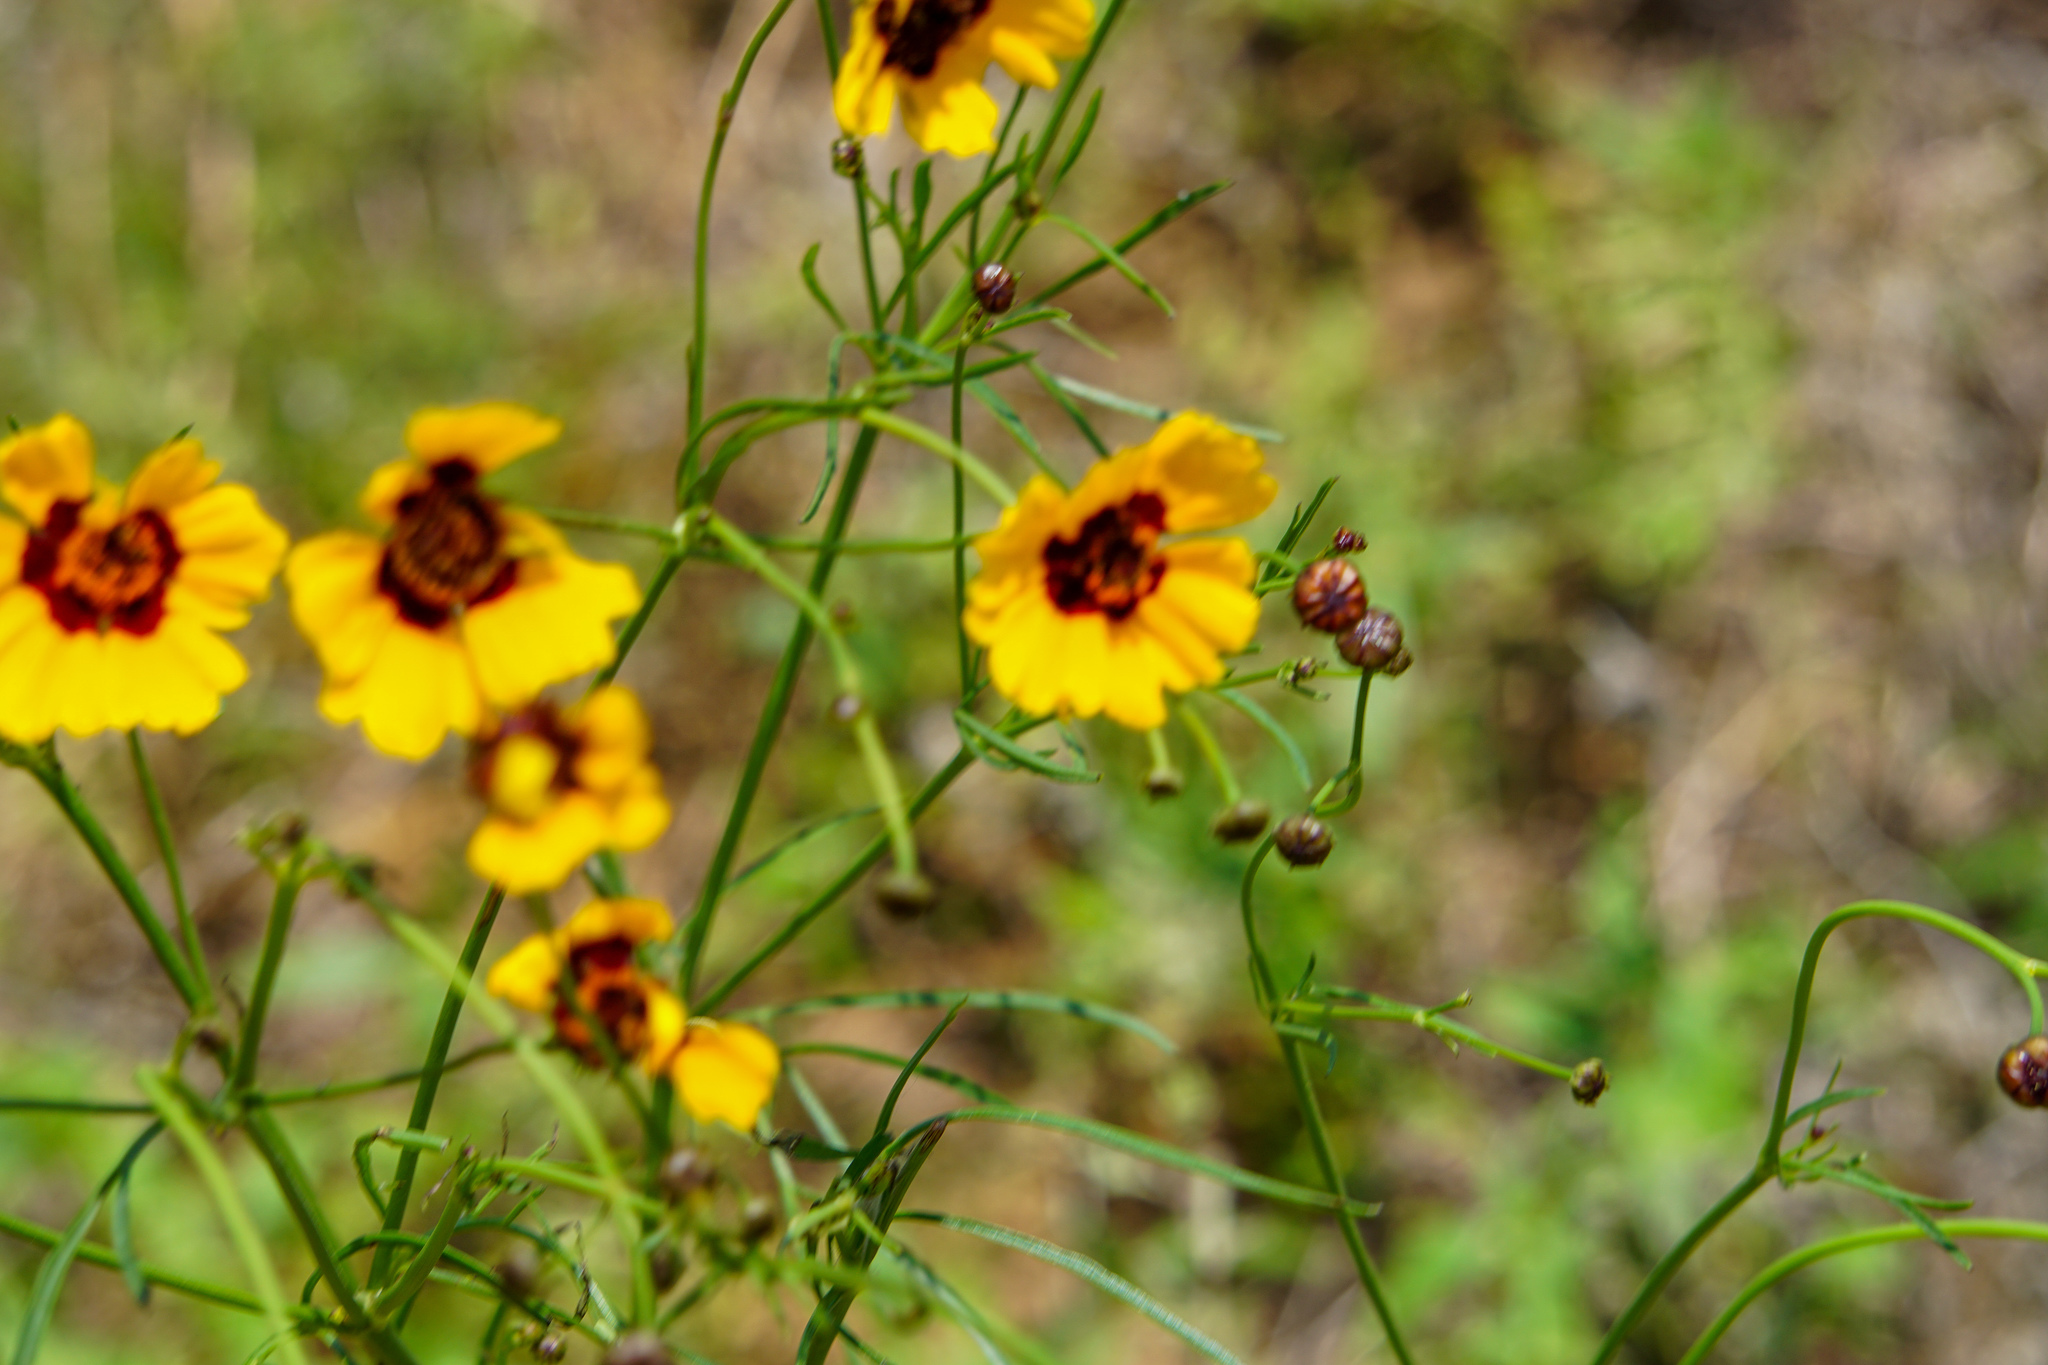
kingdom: Plantae
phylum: Tracheophyta
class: Magnoliopsida
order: Asterales
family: Asteraceae
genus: Coreopsis
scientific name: Coreopsis tinctoria
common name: Garden tickseed
